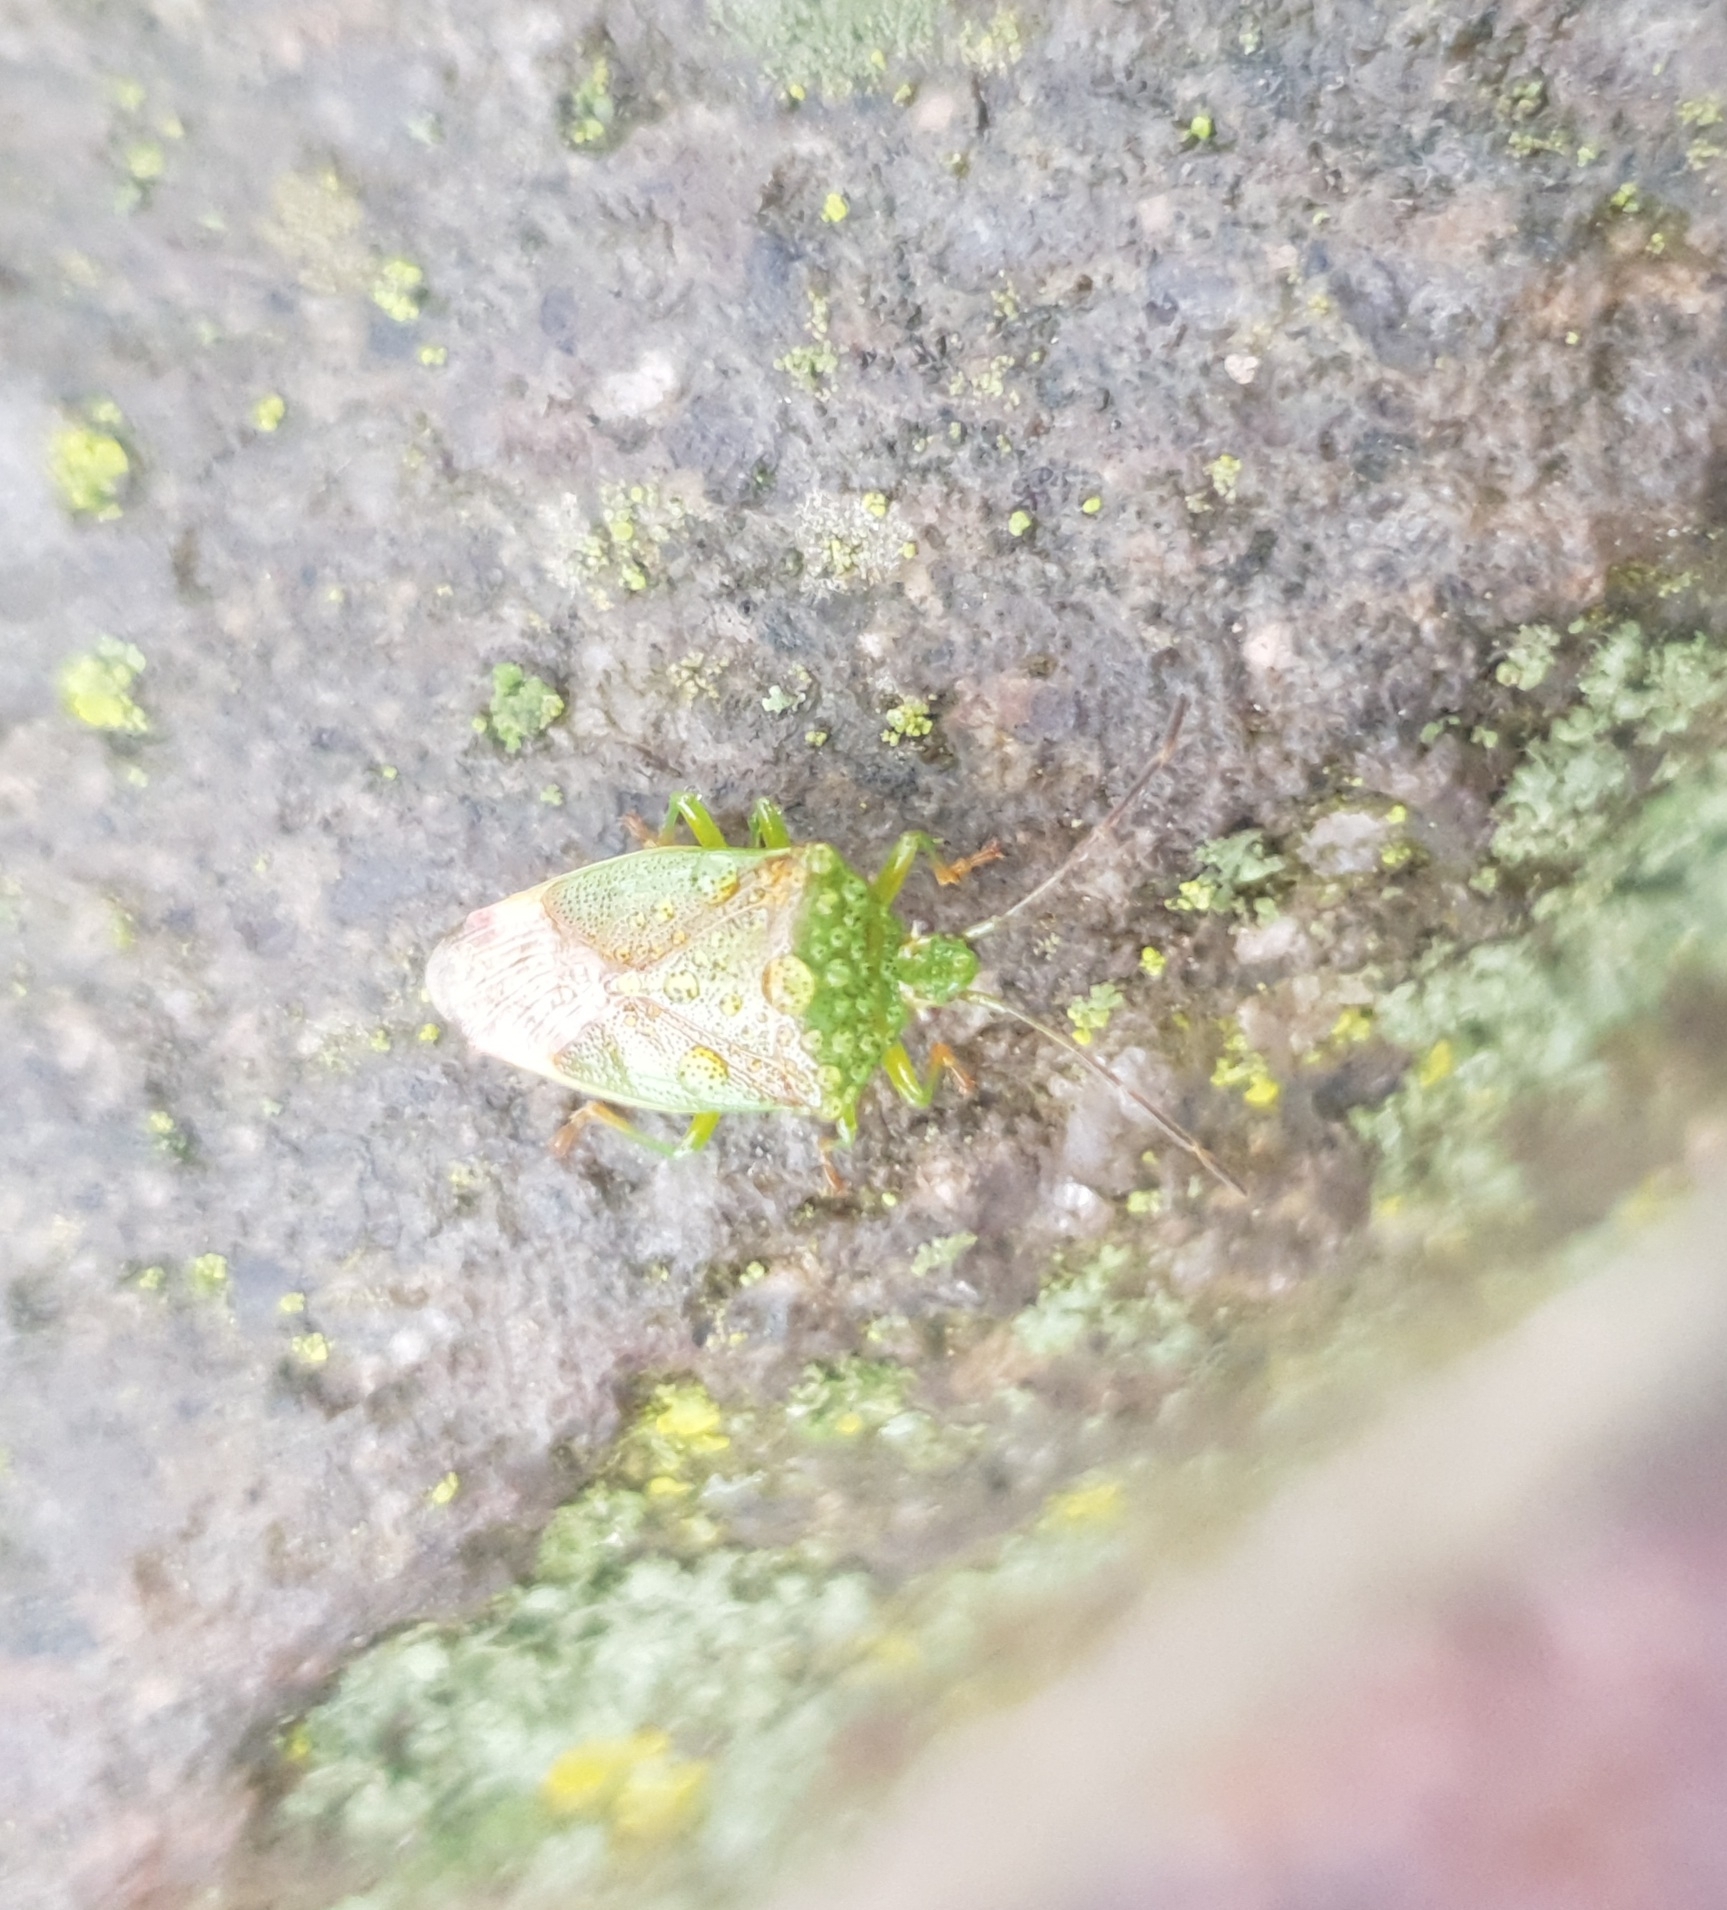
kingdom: Animalia
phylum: Arthropoda
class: Insecta
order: Hemiptera
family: Acanthosomatidae
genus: Elasmostethus
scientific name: Elasmostethus
